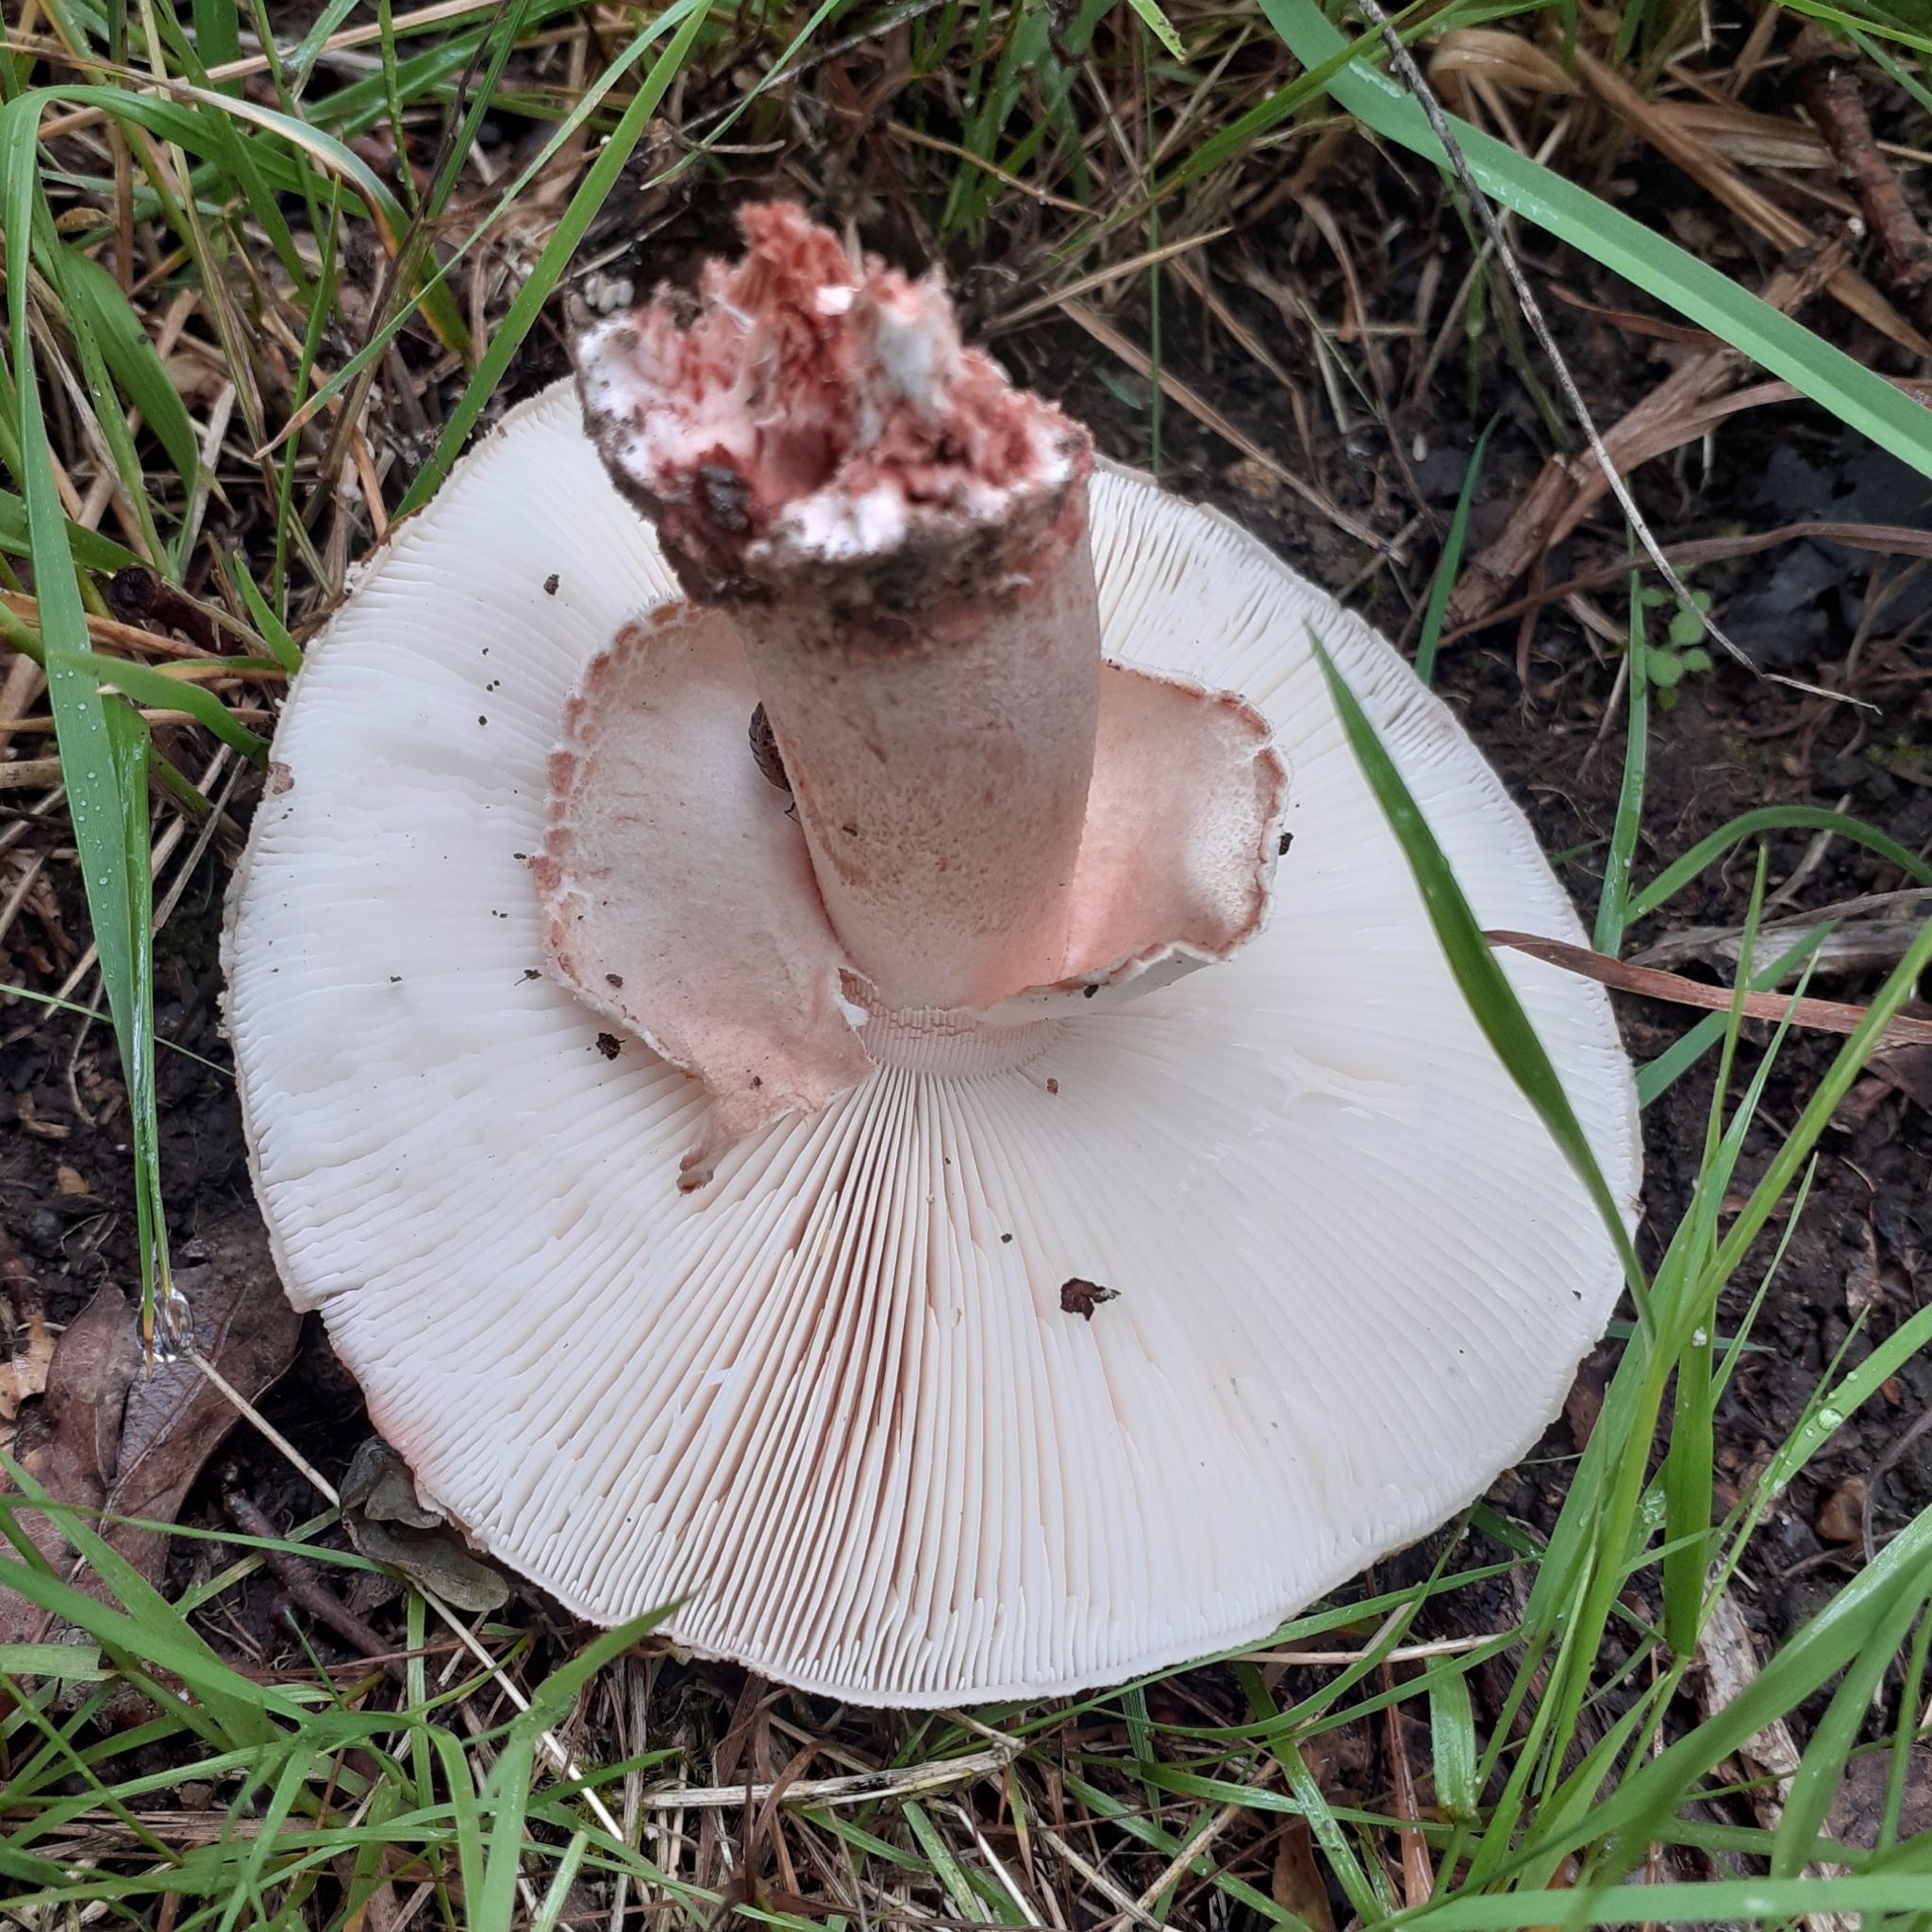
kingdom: Fungi
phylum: Basidiomycota
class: Agaricomycetes
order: Agaricales
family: Amanitaceae
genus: Amanita
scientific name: Amanita rubescens
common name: Blusher
